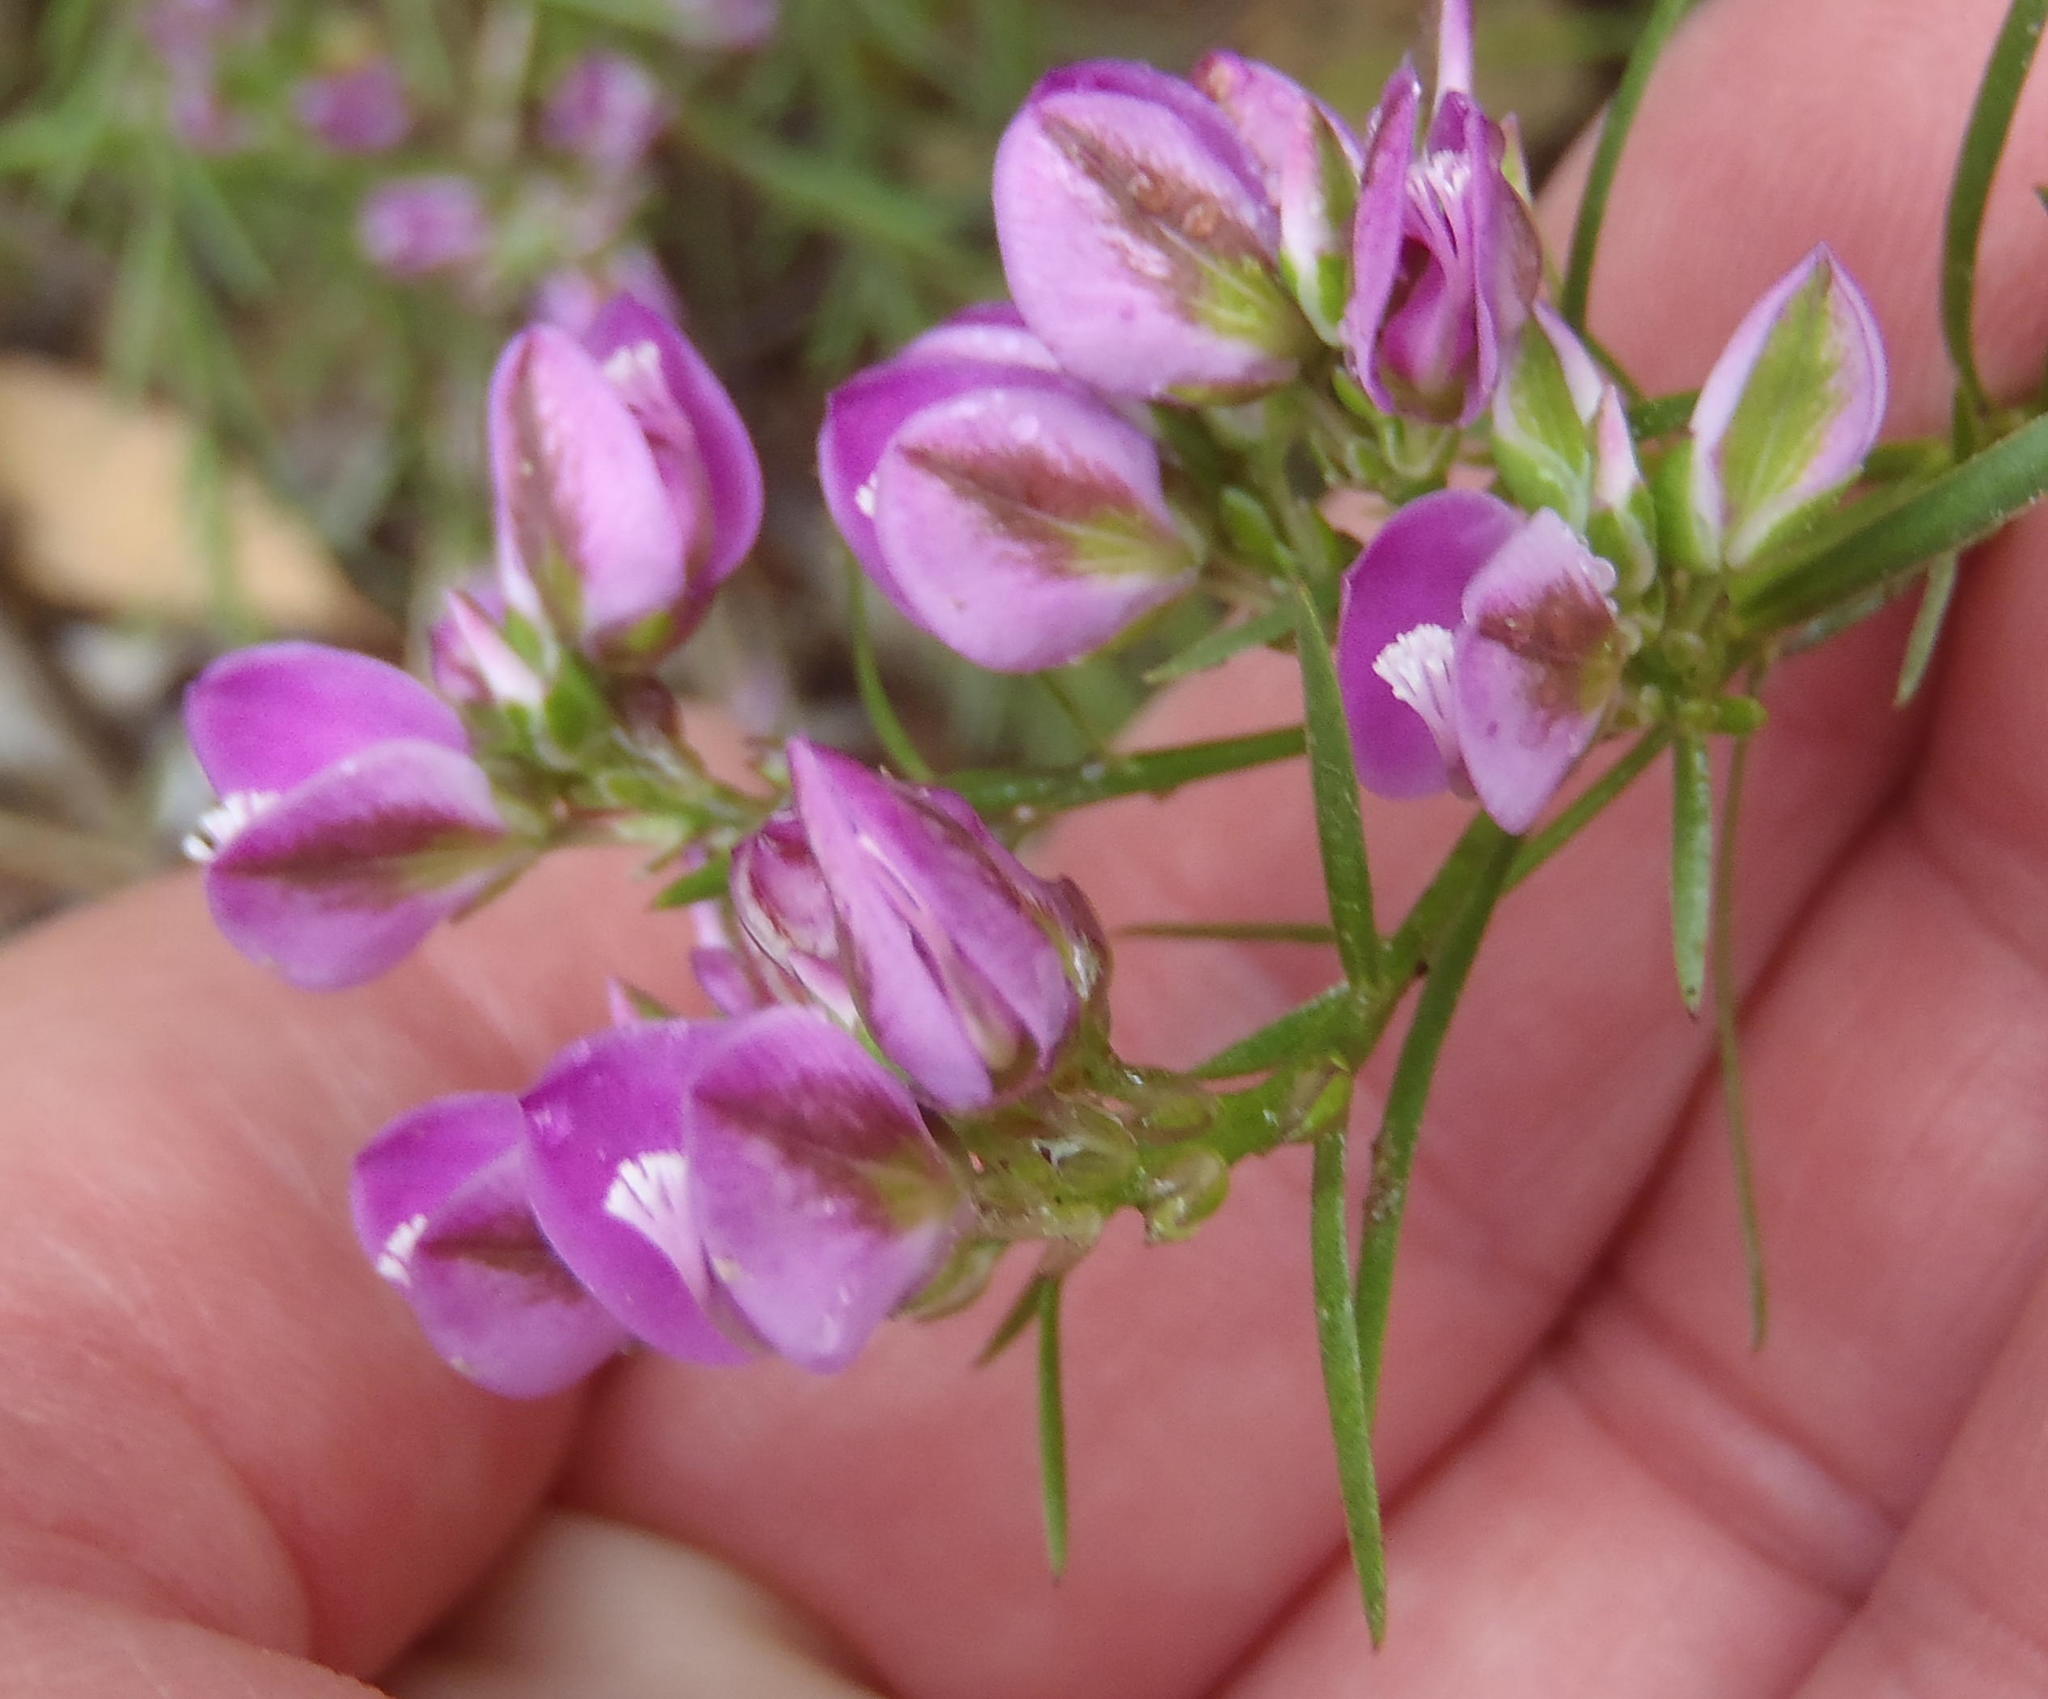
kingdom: Plantae
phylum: Tracheophyta
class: Magnoliopsida
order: Fabales
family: Polygalaceae
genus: Polygala
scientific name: Polygala ericifolia
